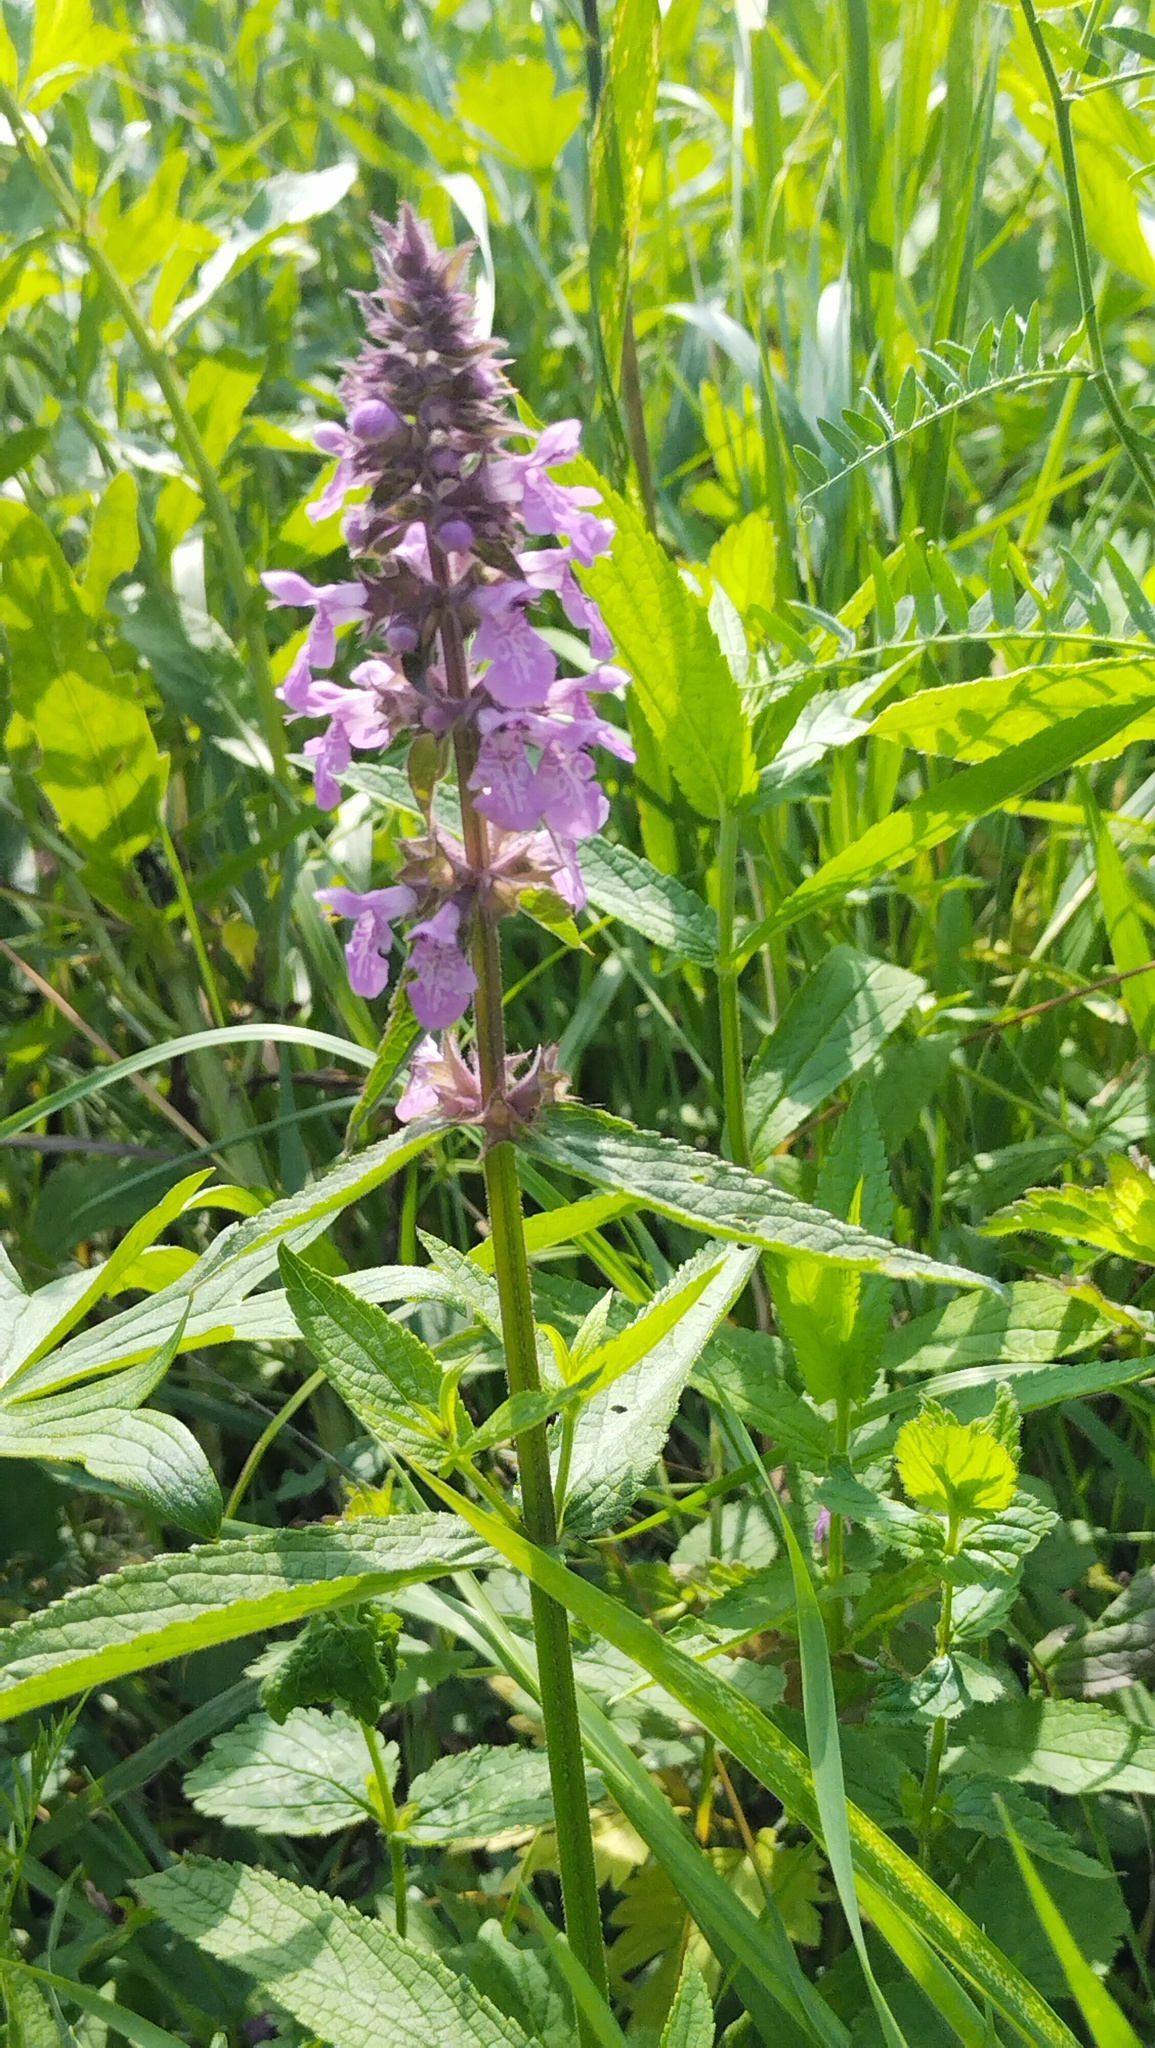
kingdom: Plantae
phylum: Tracheophyta
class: Magnoliopsida
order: Lamiales
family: Lamiaceae
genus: Stachys
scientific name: Stachys palustris
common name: Marsh woundwort
